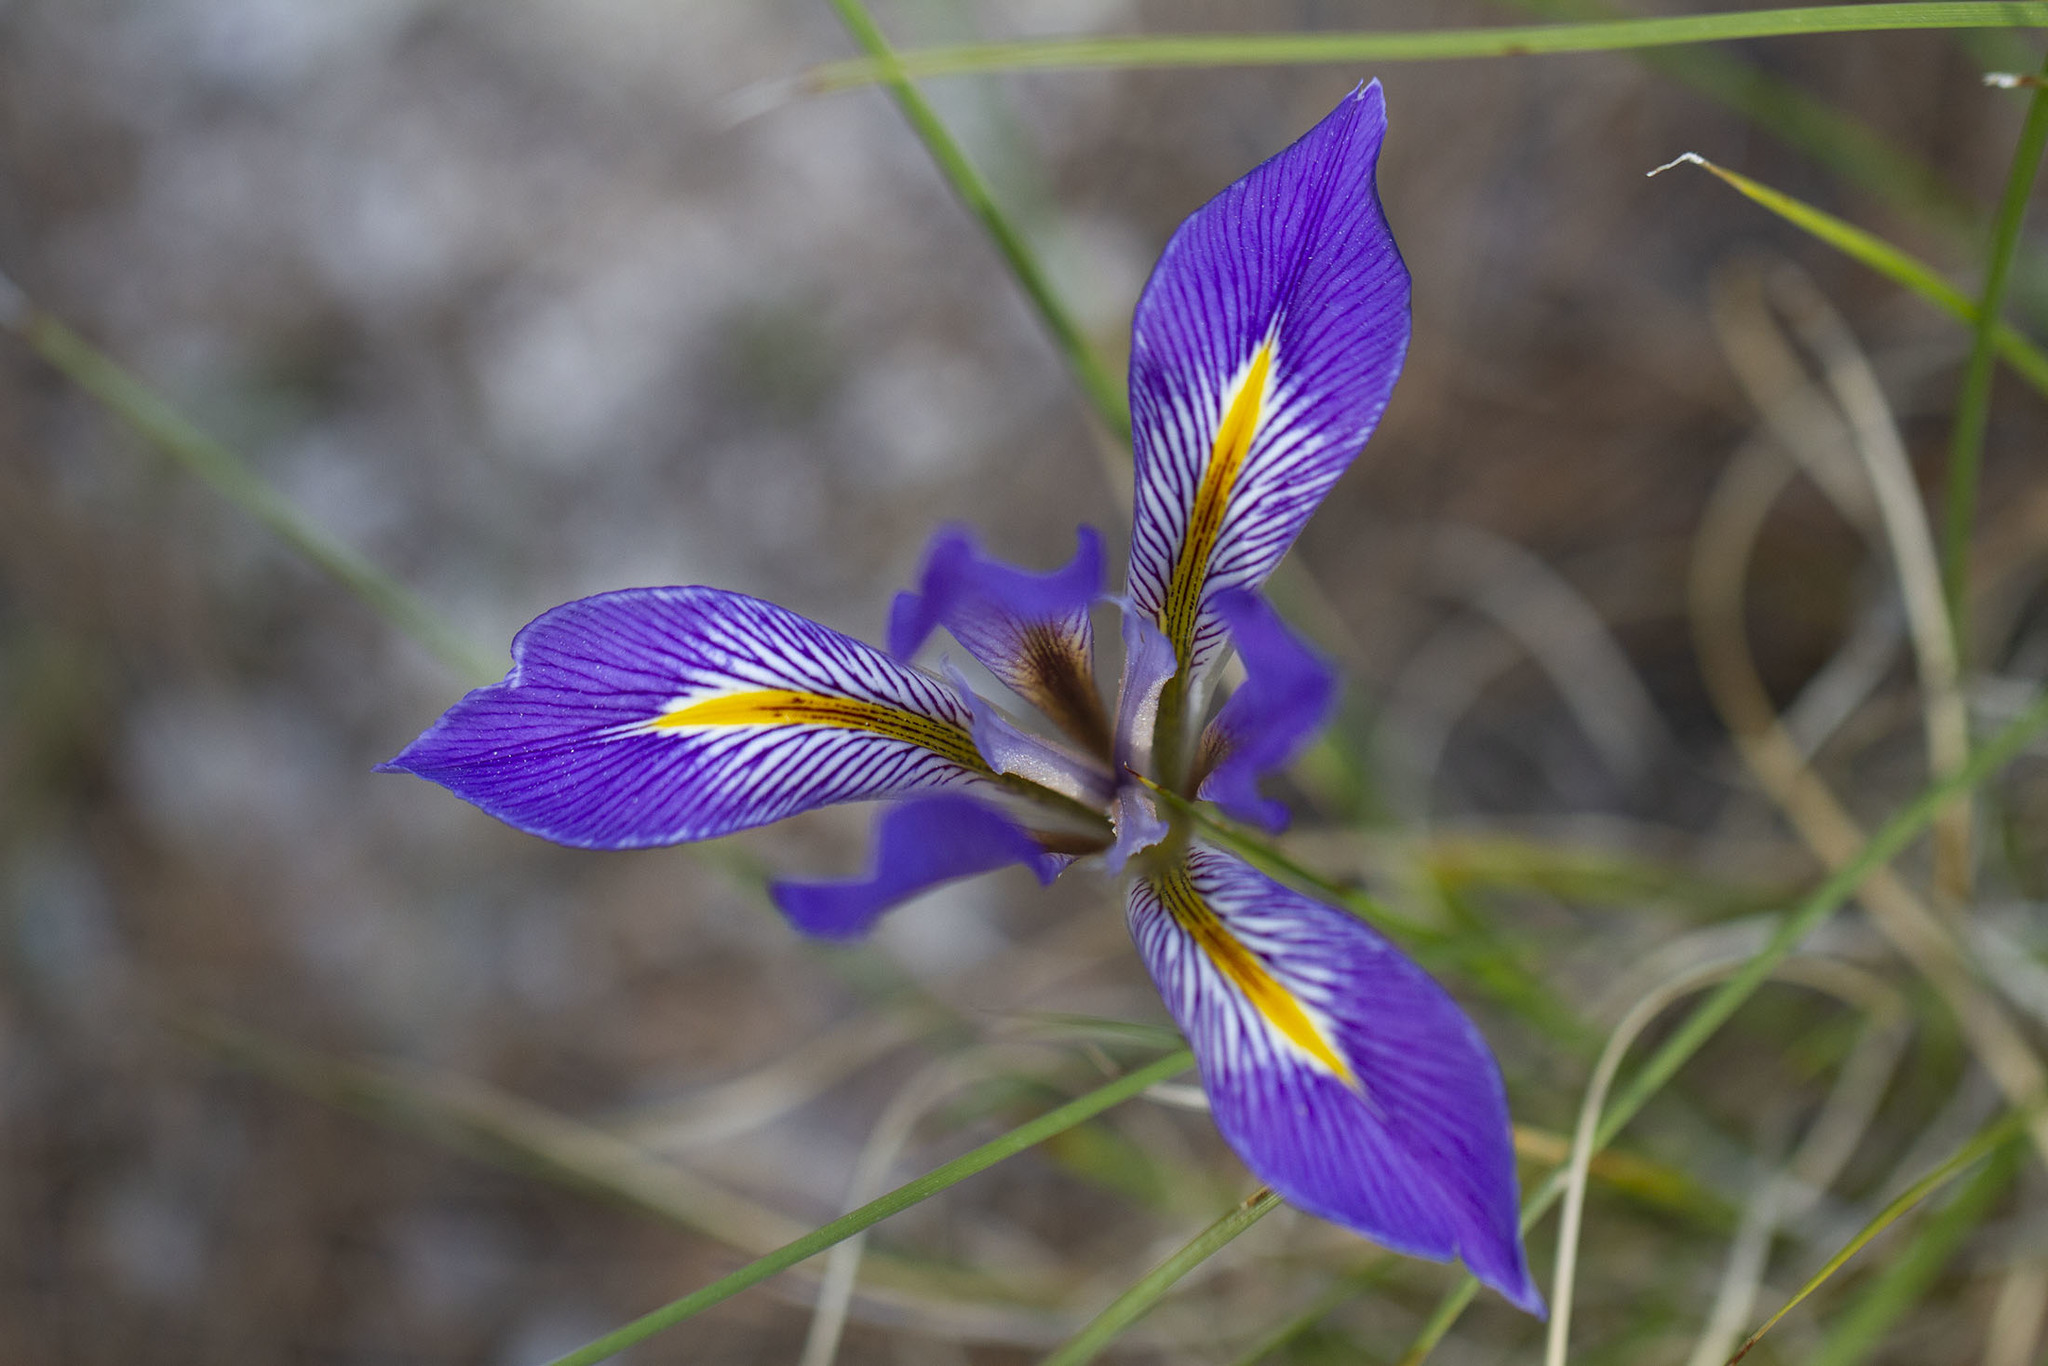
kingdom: Plantae
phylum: Tracheophyta
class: Liliopsida
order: Asparagales
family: Iridaceae
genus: Iris
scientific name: Iris unguicularis
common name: Algerian iris
